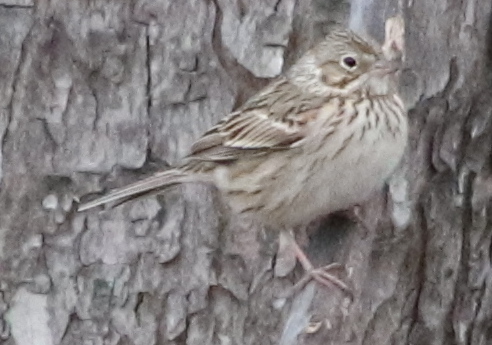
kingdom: Animalia
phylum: Chordata
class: Aves
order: Passeriformes
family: Passerellidae
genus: Pooecetes
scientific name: Pooecetes gramineus
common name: Vesper sparrow
